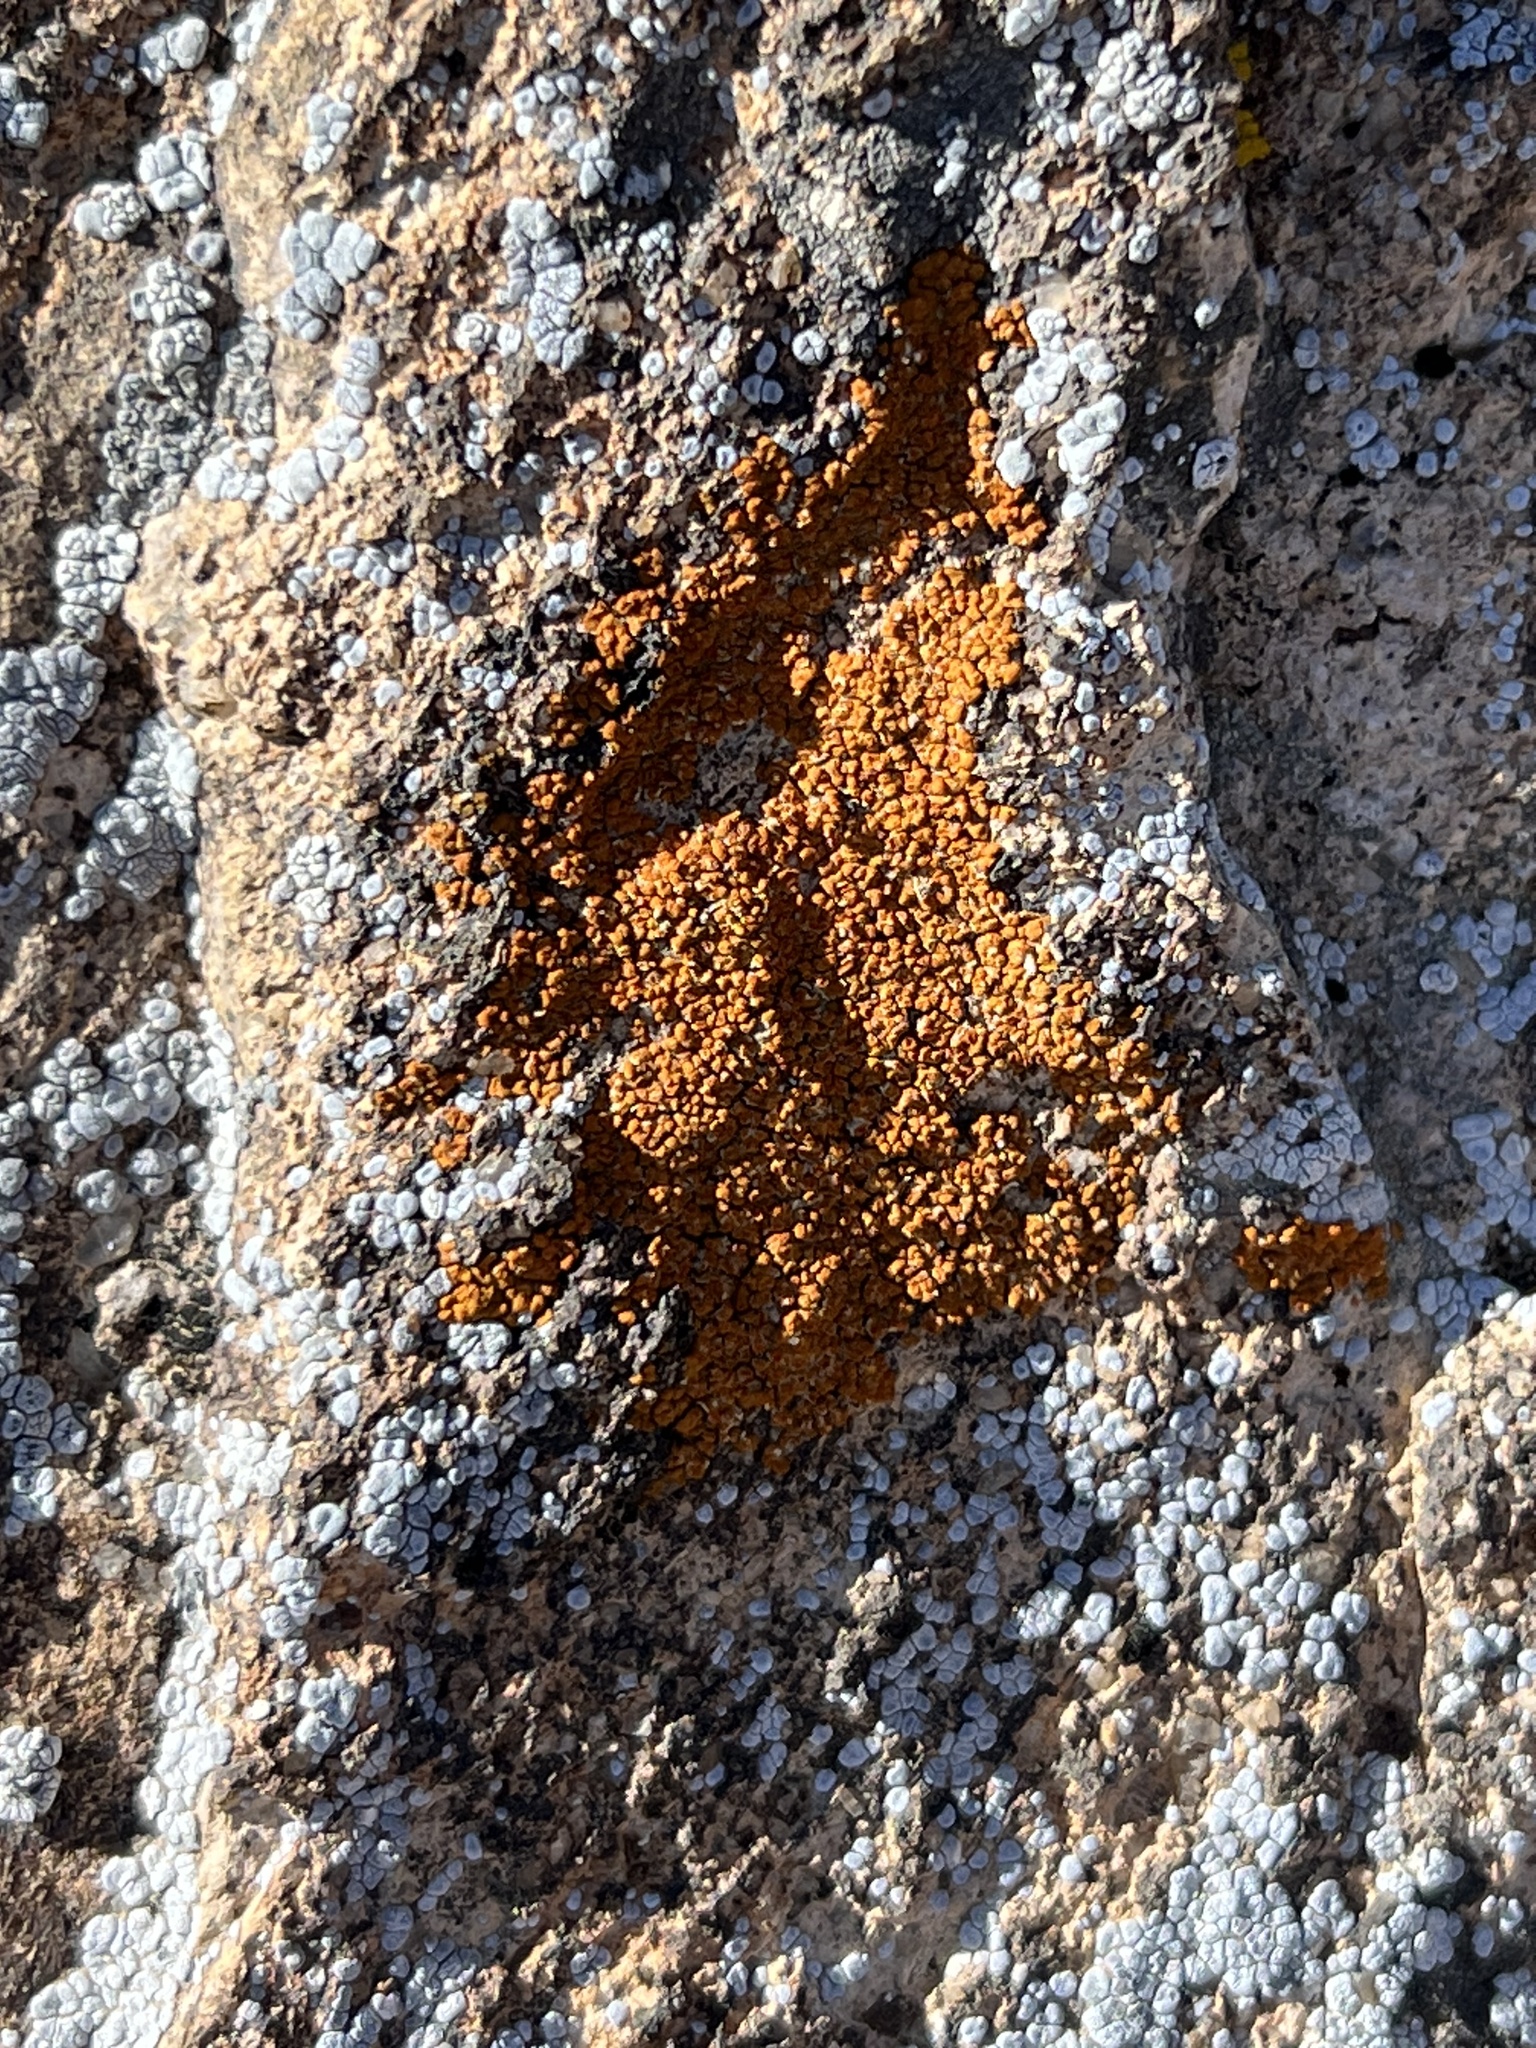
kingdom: Fungi
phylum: Ascomycota
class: Candelariomycetes
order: Candelariales
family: Candelariaceae
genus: Candelariella
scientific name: Candelariella rosulans
